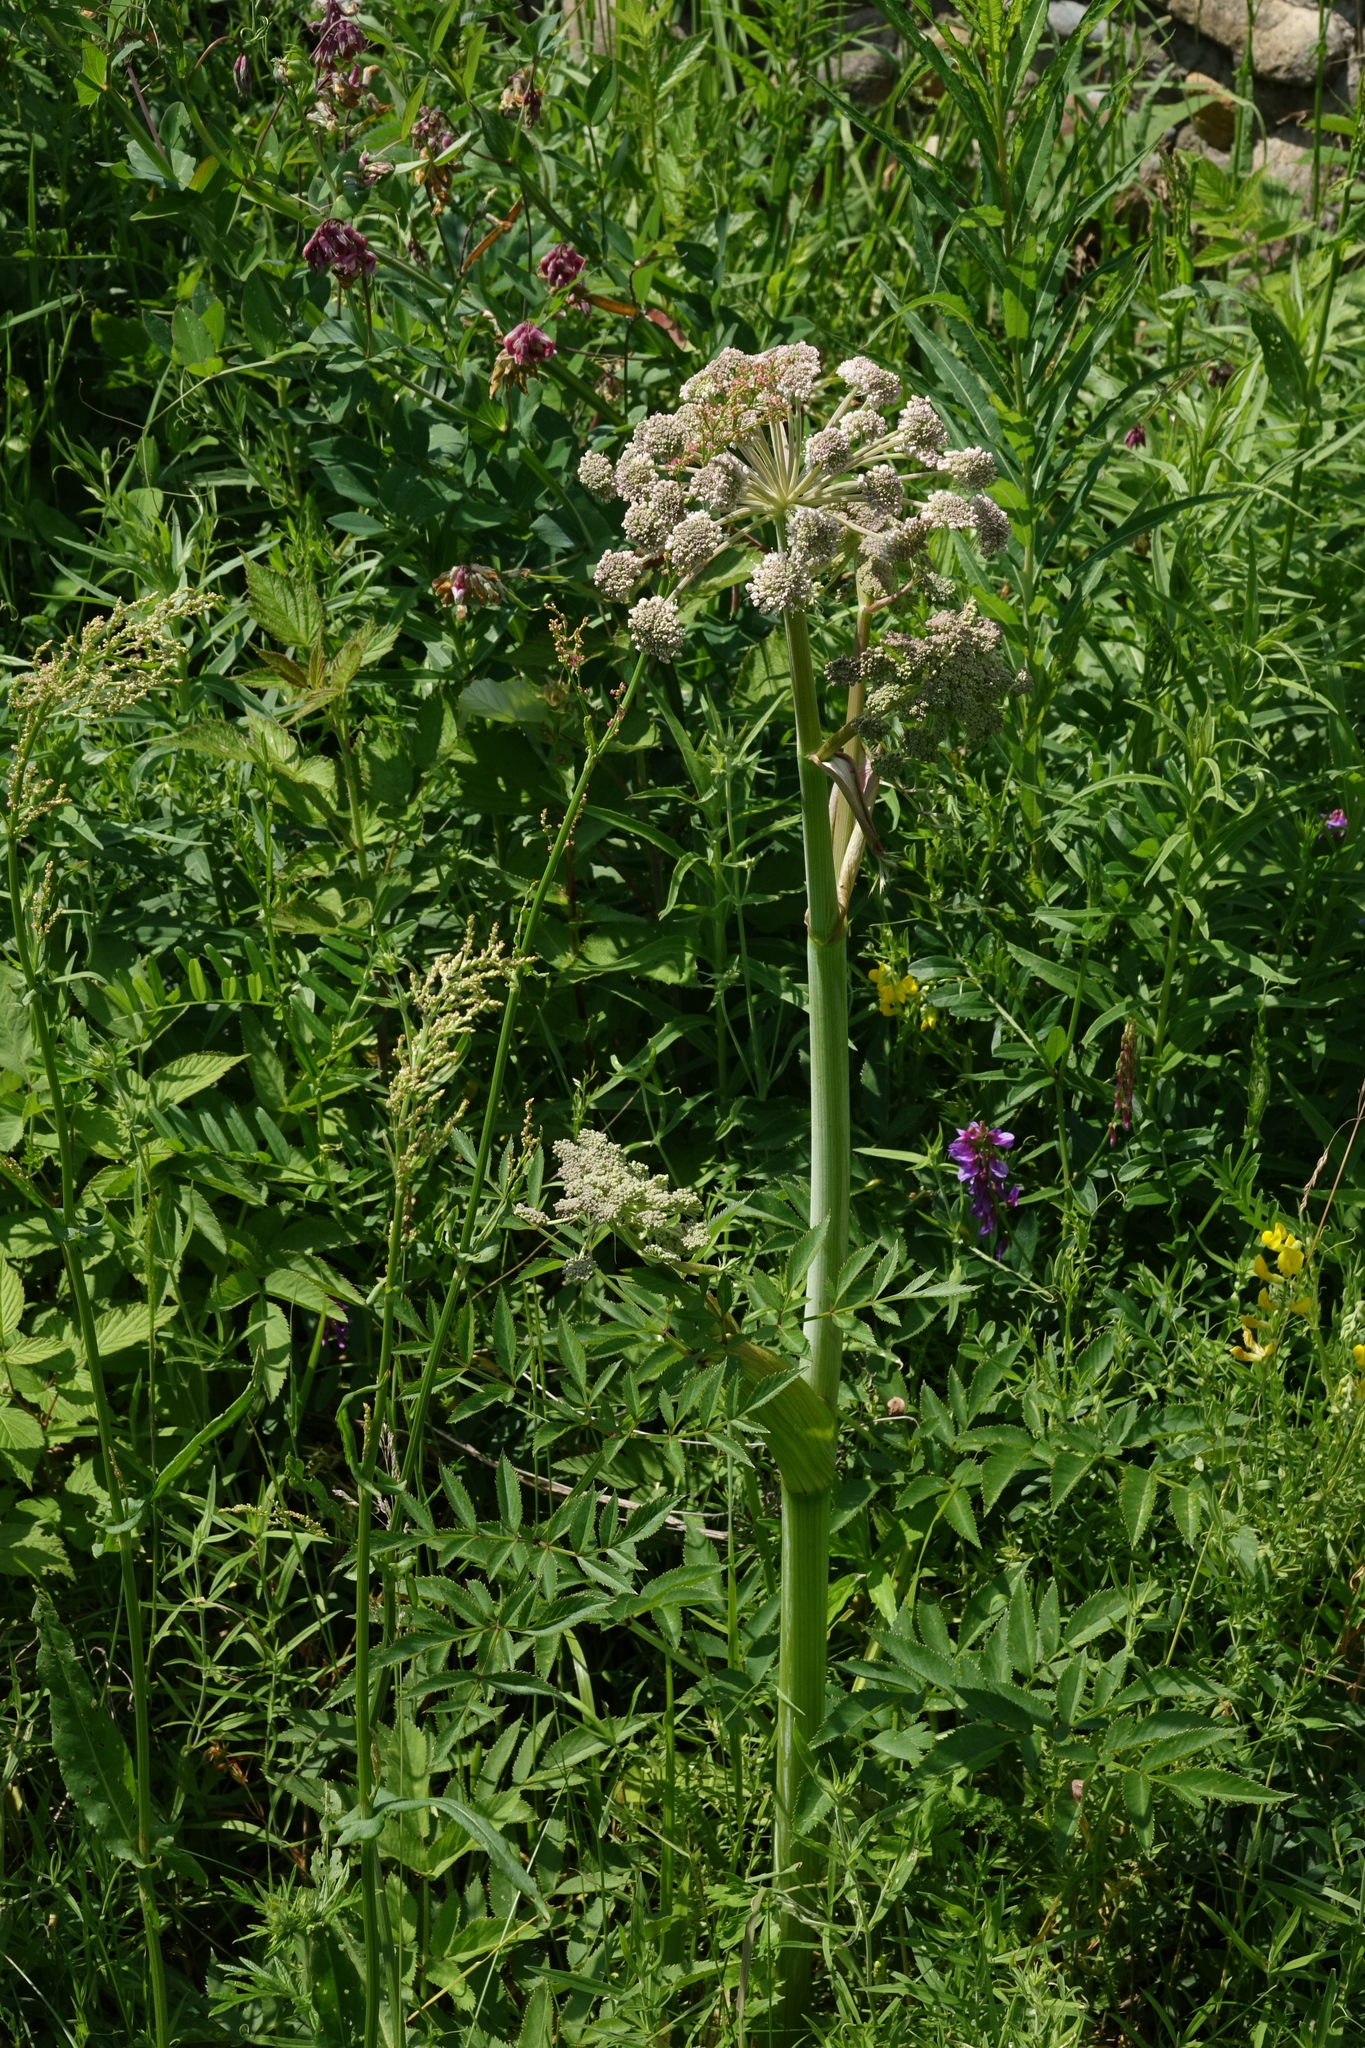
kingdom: Plantae
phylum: Tracheophyta
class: Magnoliopsida
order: Apiales
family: Apiaceae
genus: Angelica
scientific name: Angelica sylvestris
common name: Wild angelica
